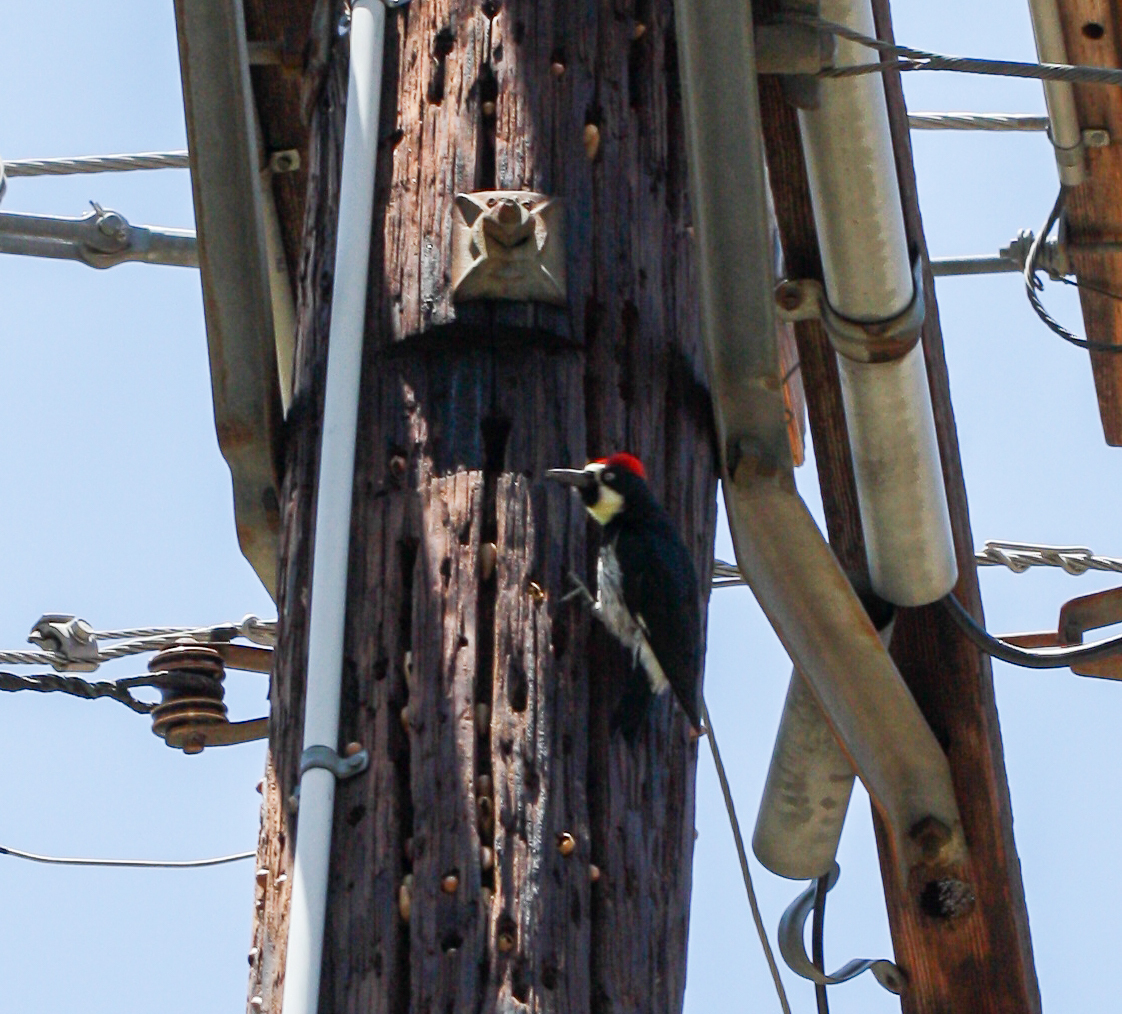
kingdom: Animalia
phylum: Chordata
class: Aves
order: Piciformes
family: Picidae
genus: Melanerpes
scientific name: Melanerpes formicivorus
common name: Acorn woodpecker
